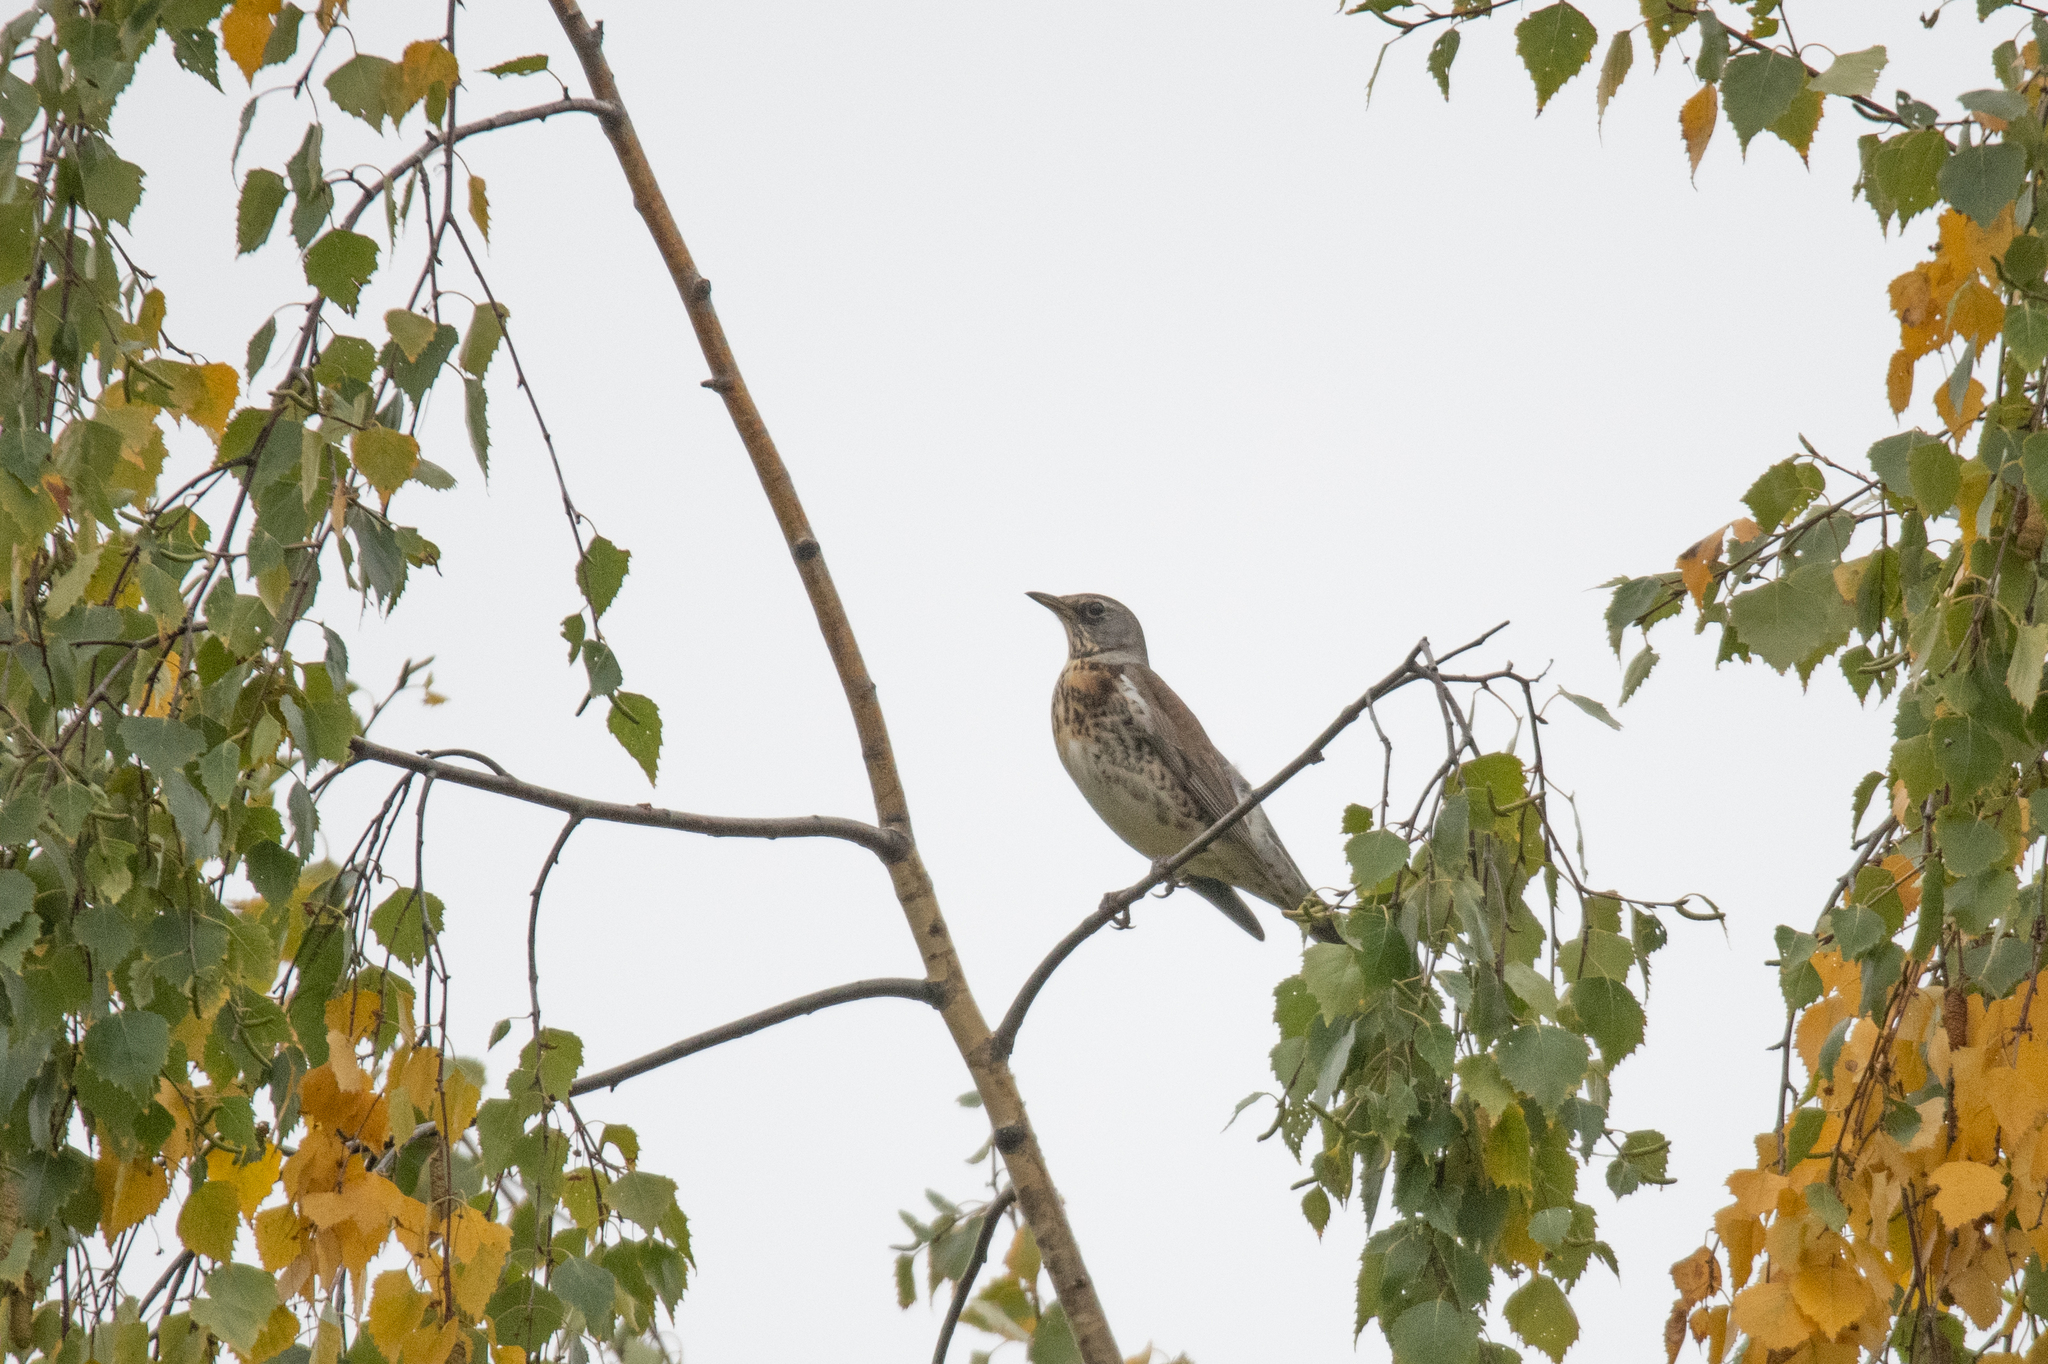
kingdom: Animalia
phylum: Chordata
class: Aves
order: Passeriformes
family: Turdidae
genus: Turdus
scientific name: Turdus pilaris
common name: Fieldfare
